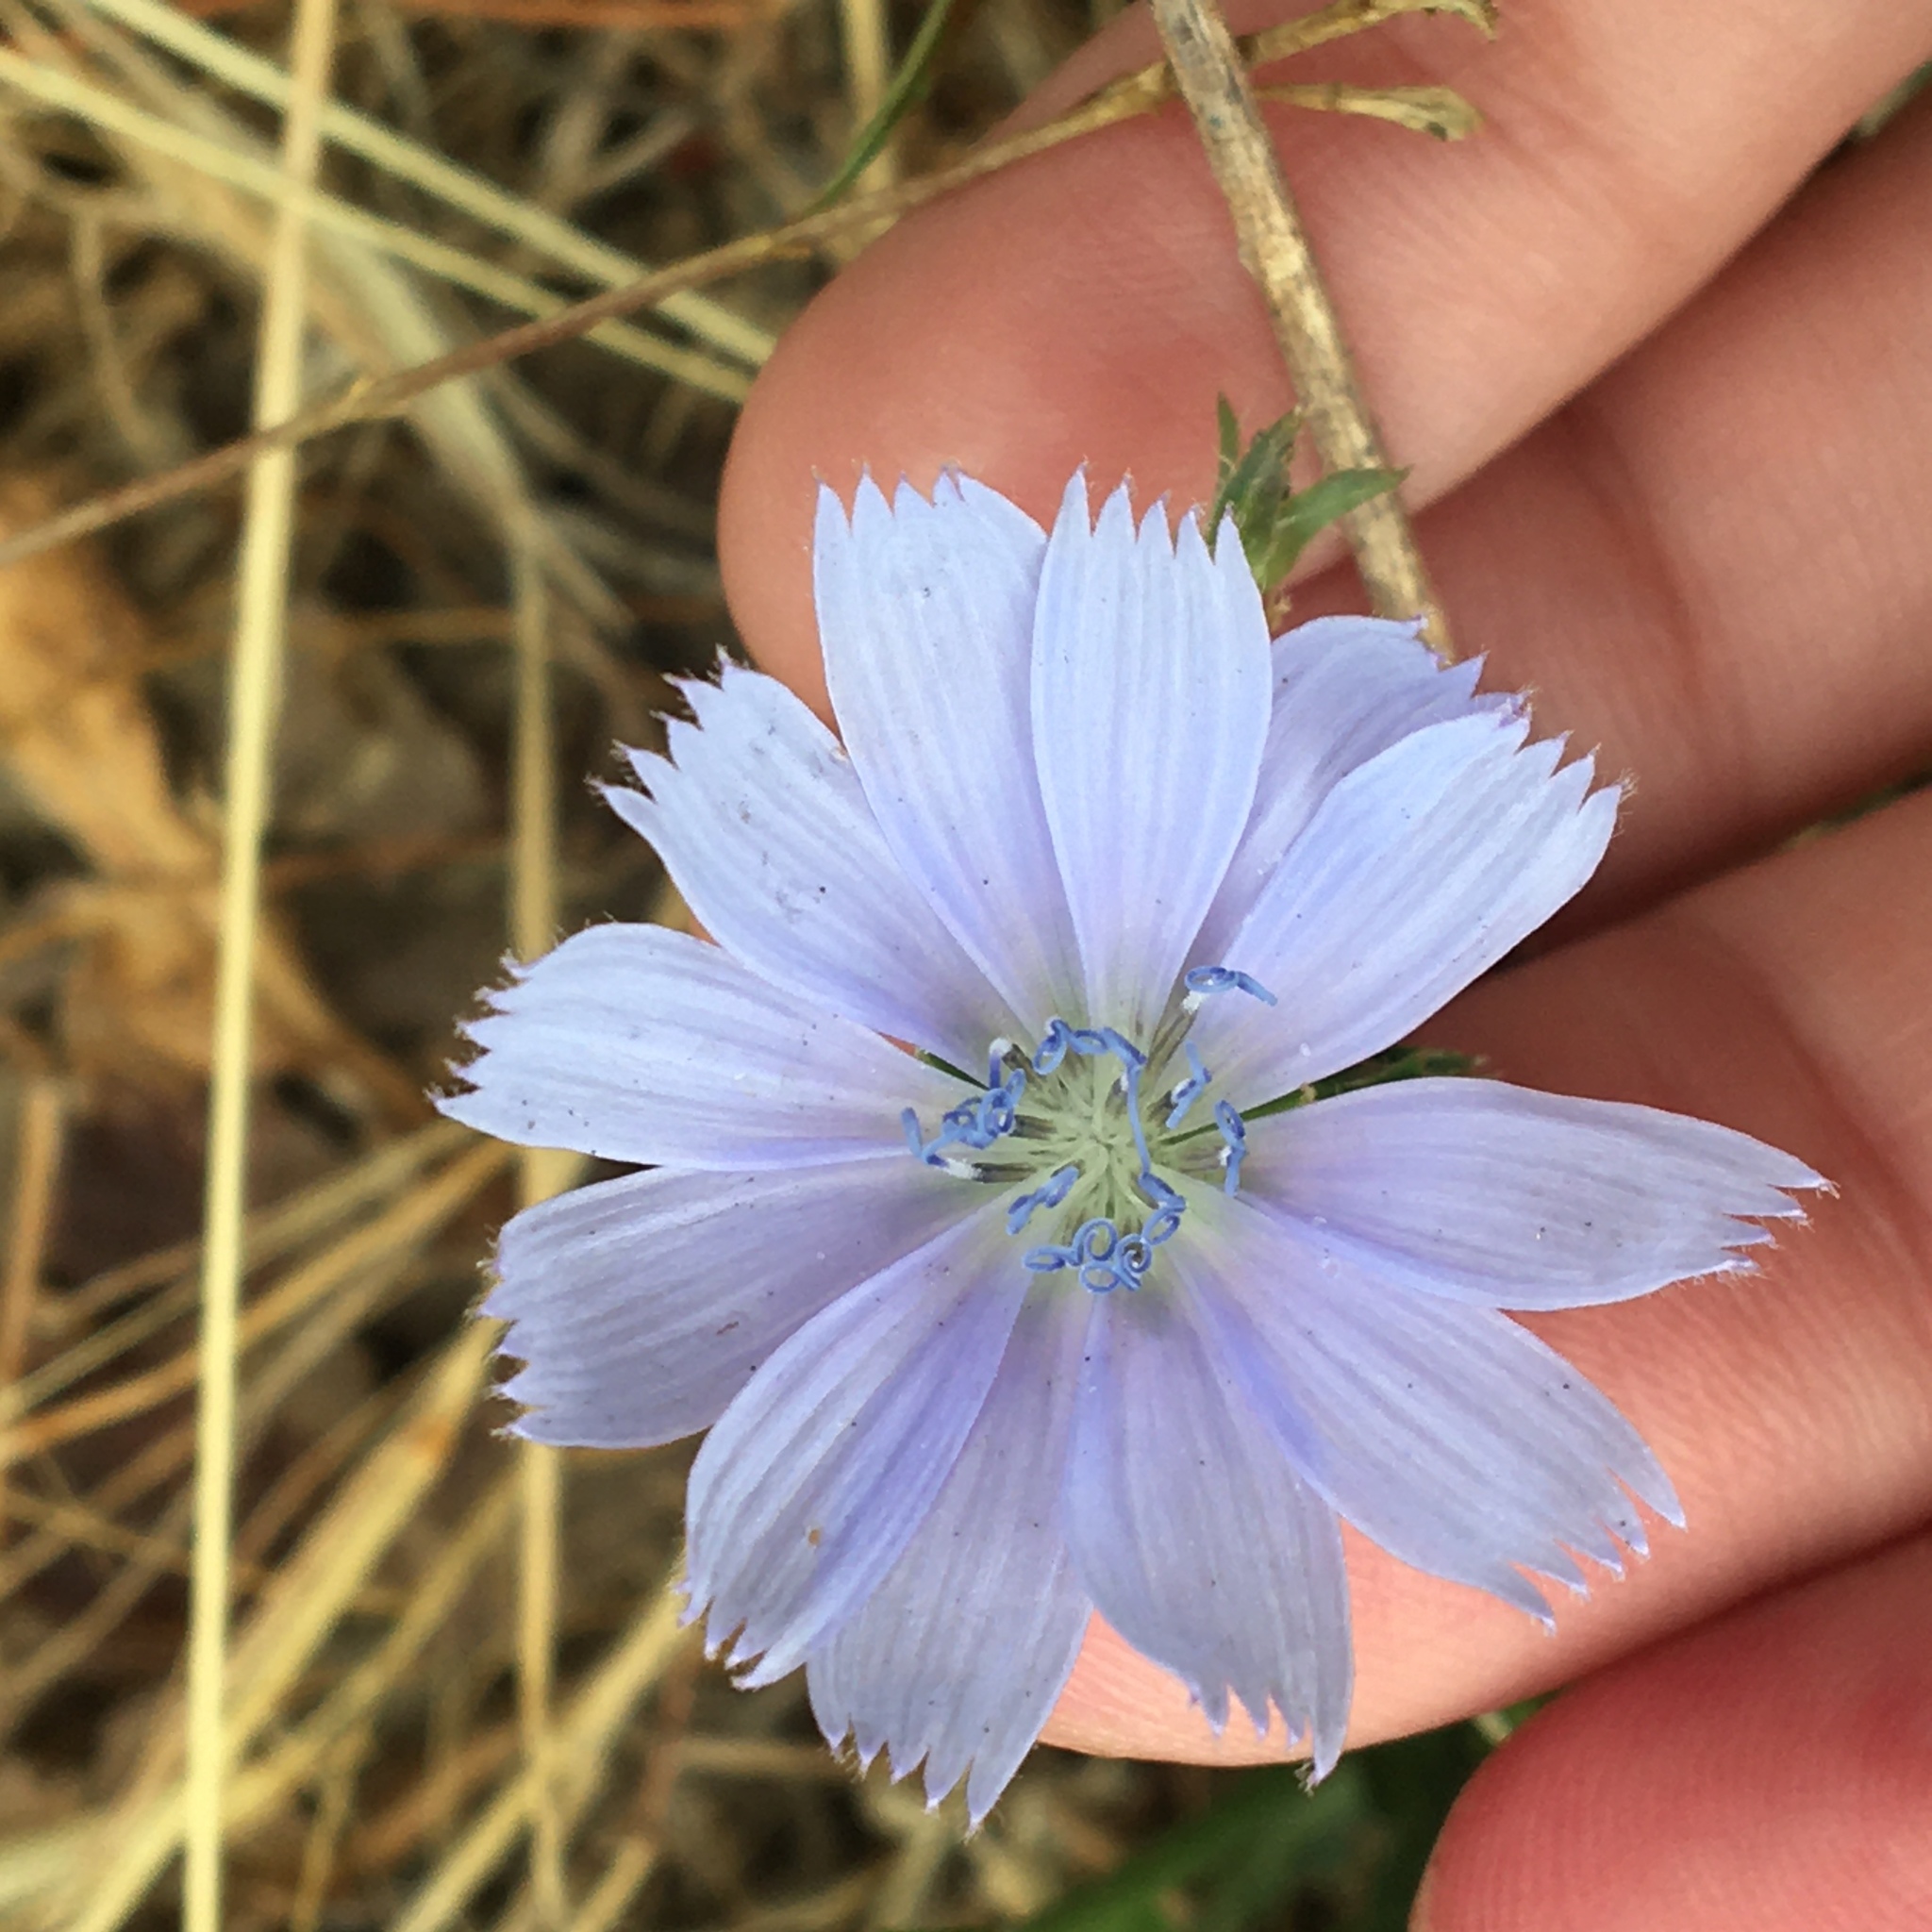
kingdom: Plantae
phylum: Tracheophyta
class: Magnoliopsida
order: Asterales
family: Asteraceae
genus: Cichorium
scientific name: Cichorium intybus
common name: Chicory
